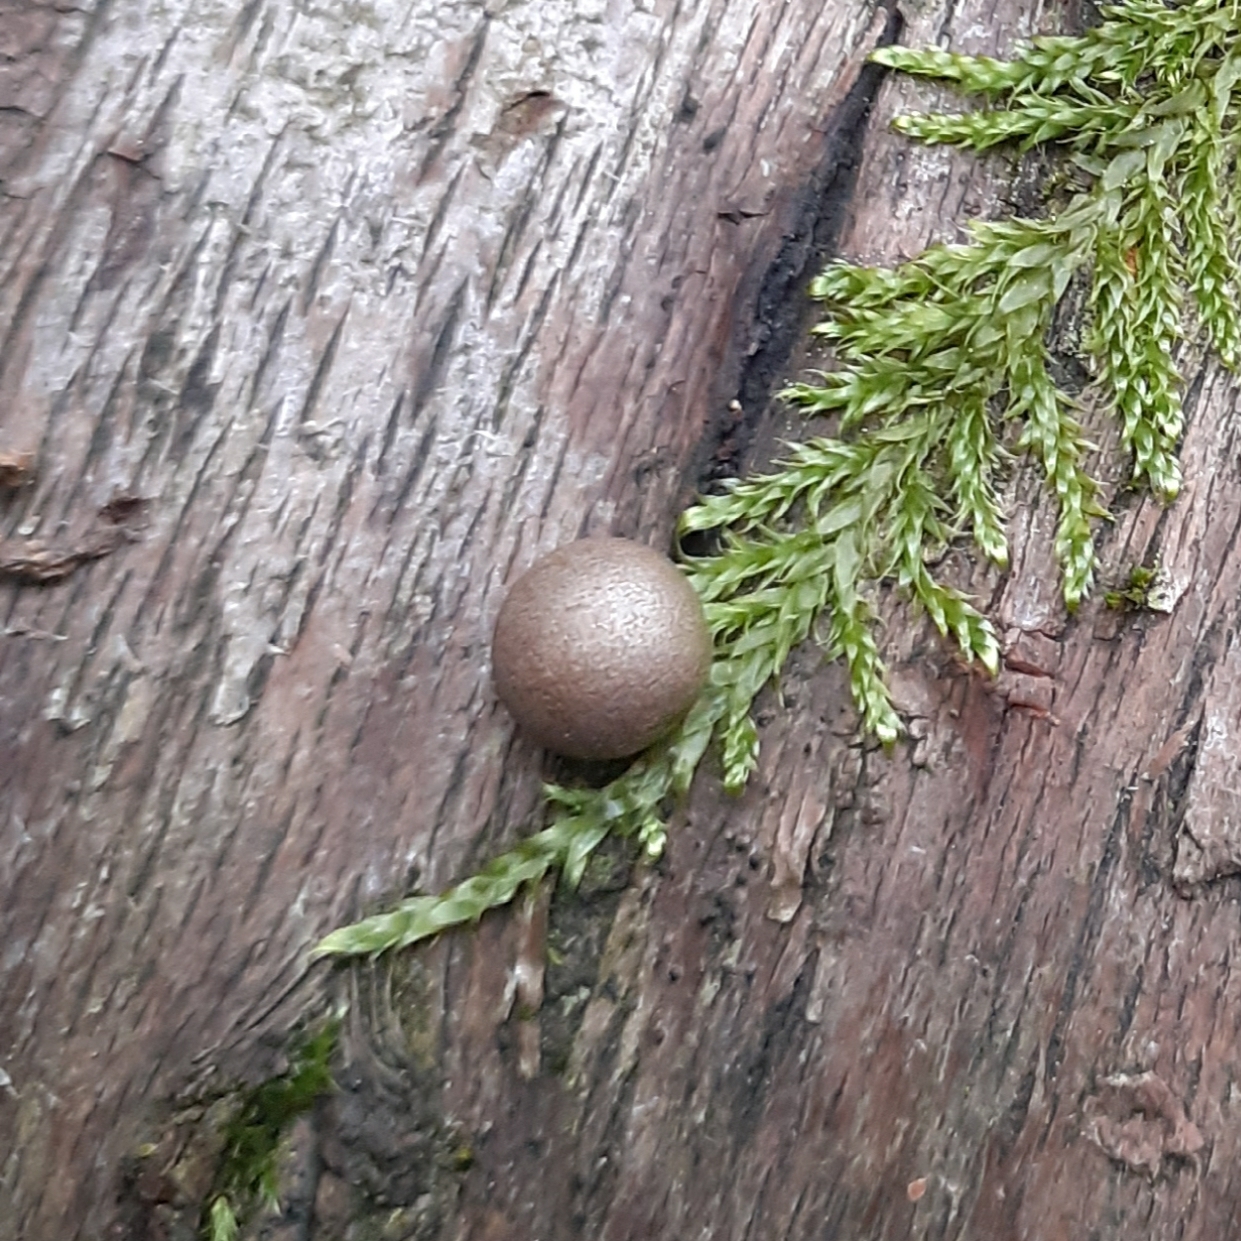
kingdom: Protozoa
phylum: Mycetozoa
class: Myxomycetes
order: Cribrariales
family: Tubiferaceae
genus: Lycogala
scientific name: Lycogala epidendrum
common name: Wolf's milk
